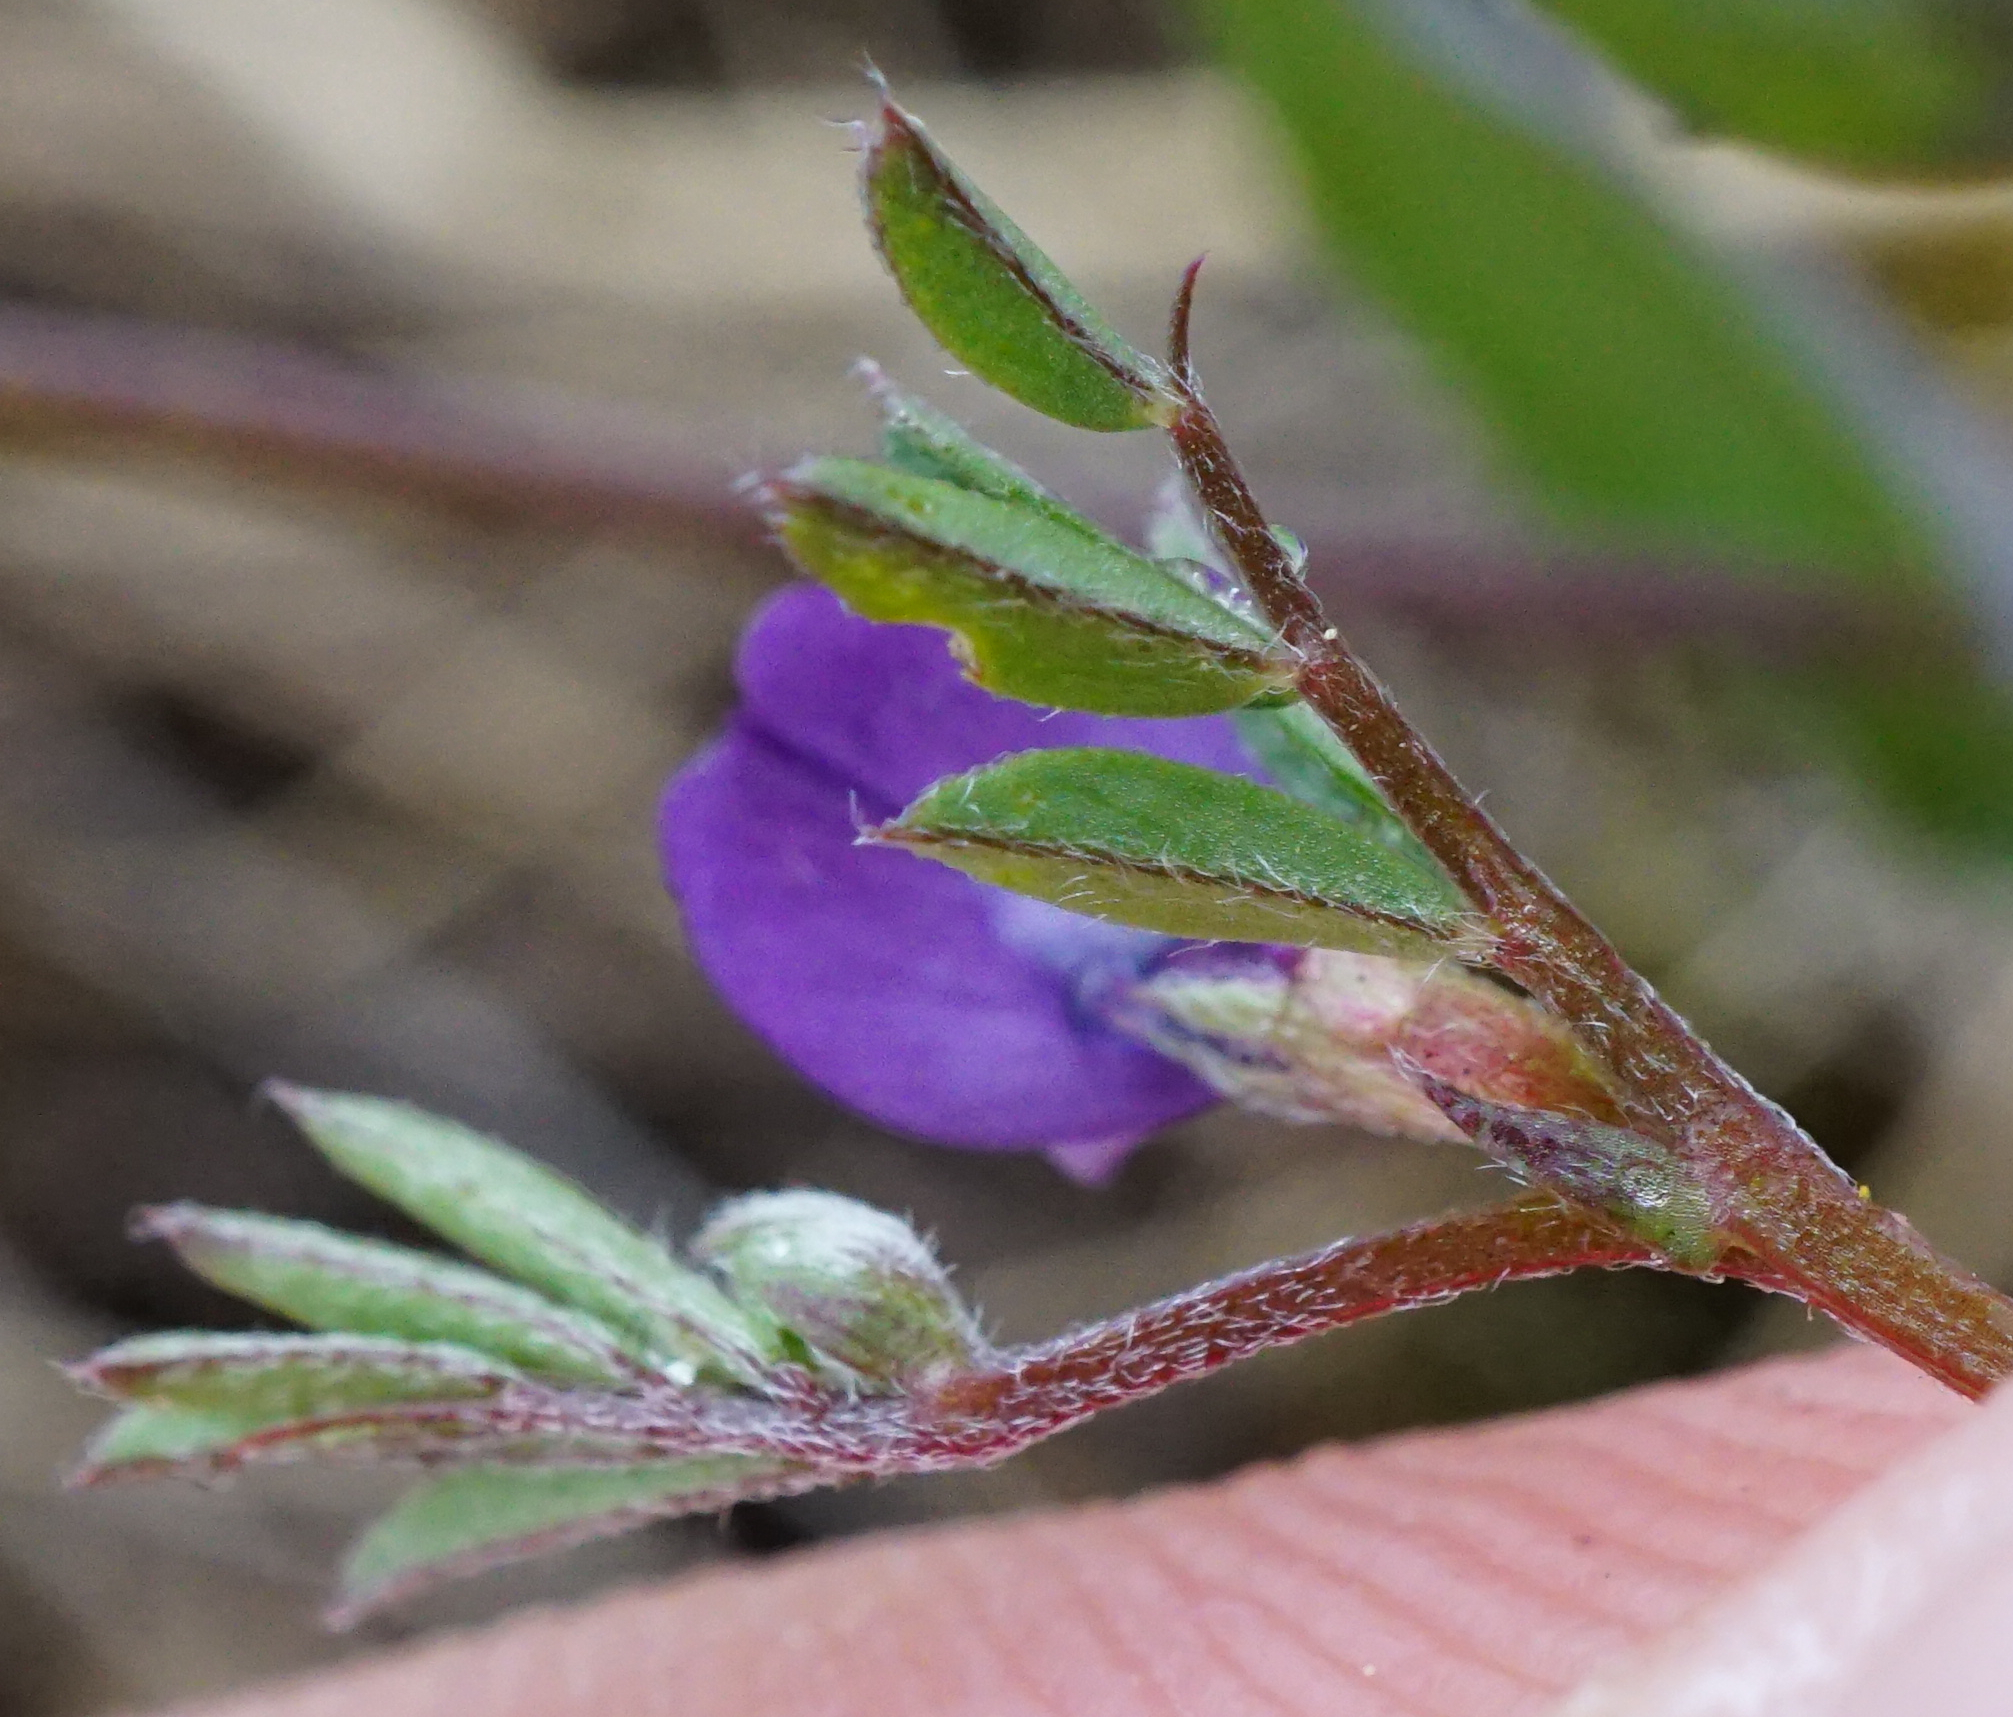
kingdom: Plantae
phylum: Tracheophyta
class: Magnoliopsida
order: Fabales
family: Fabaceae
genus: Vicia
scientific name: Vicia lathyroides
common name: Spring vetch
